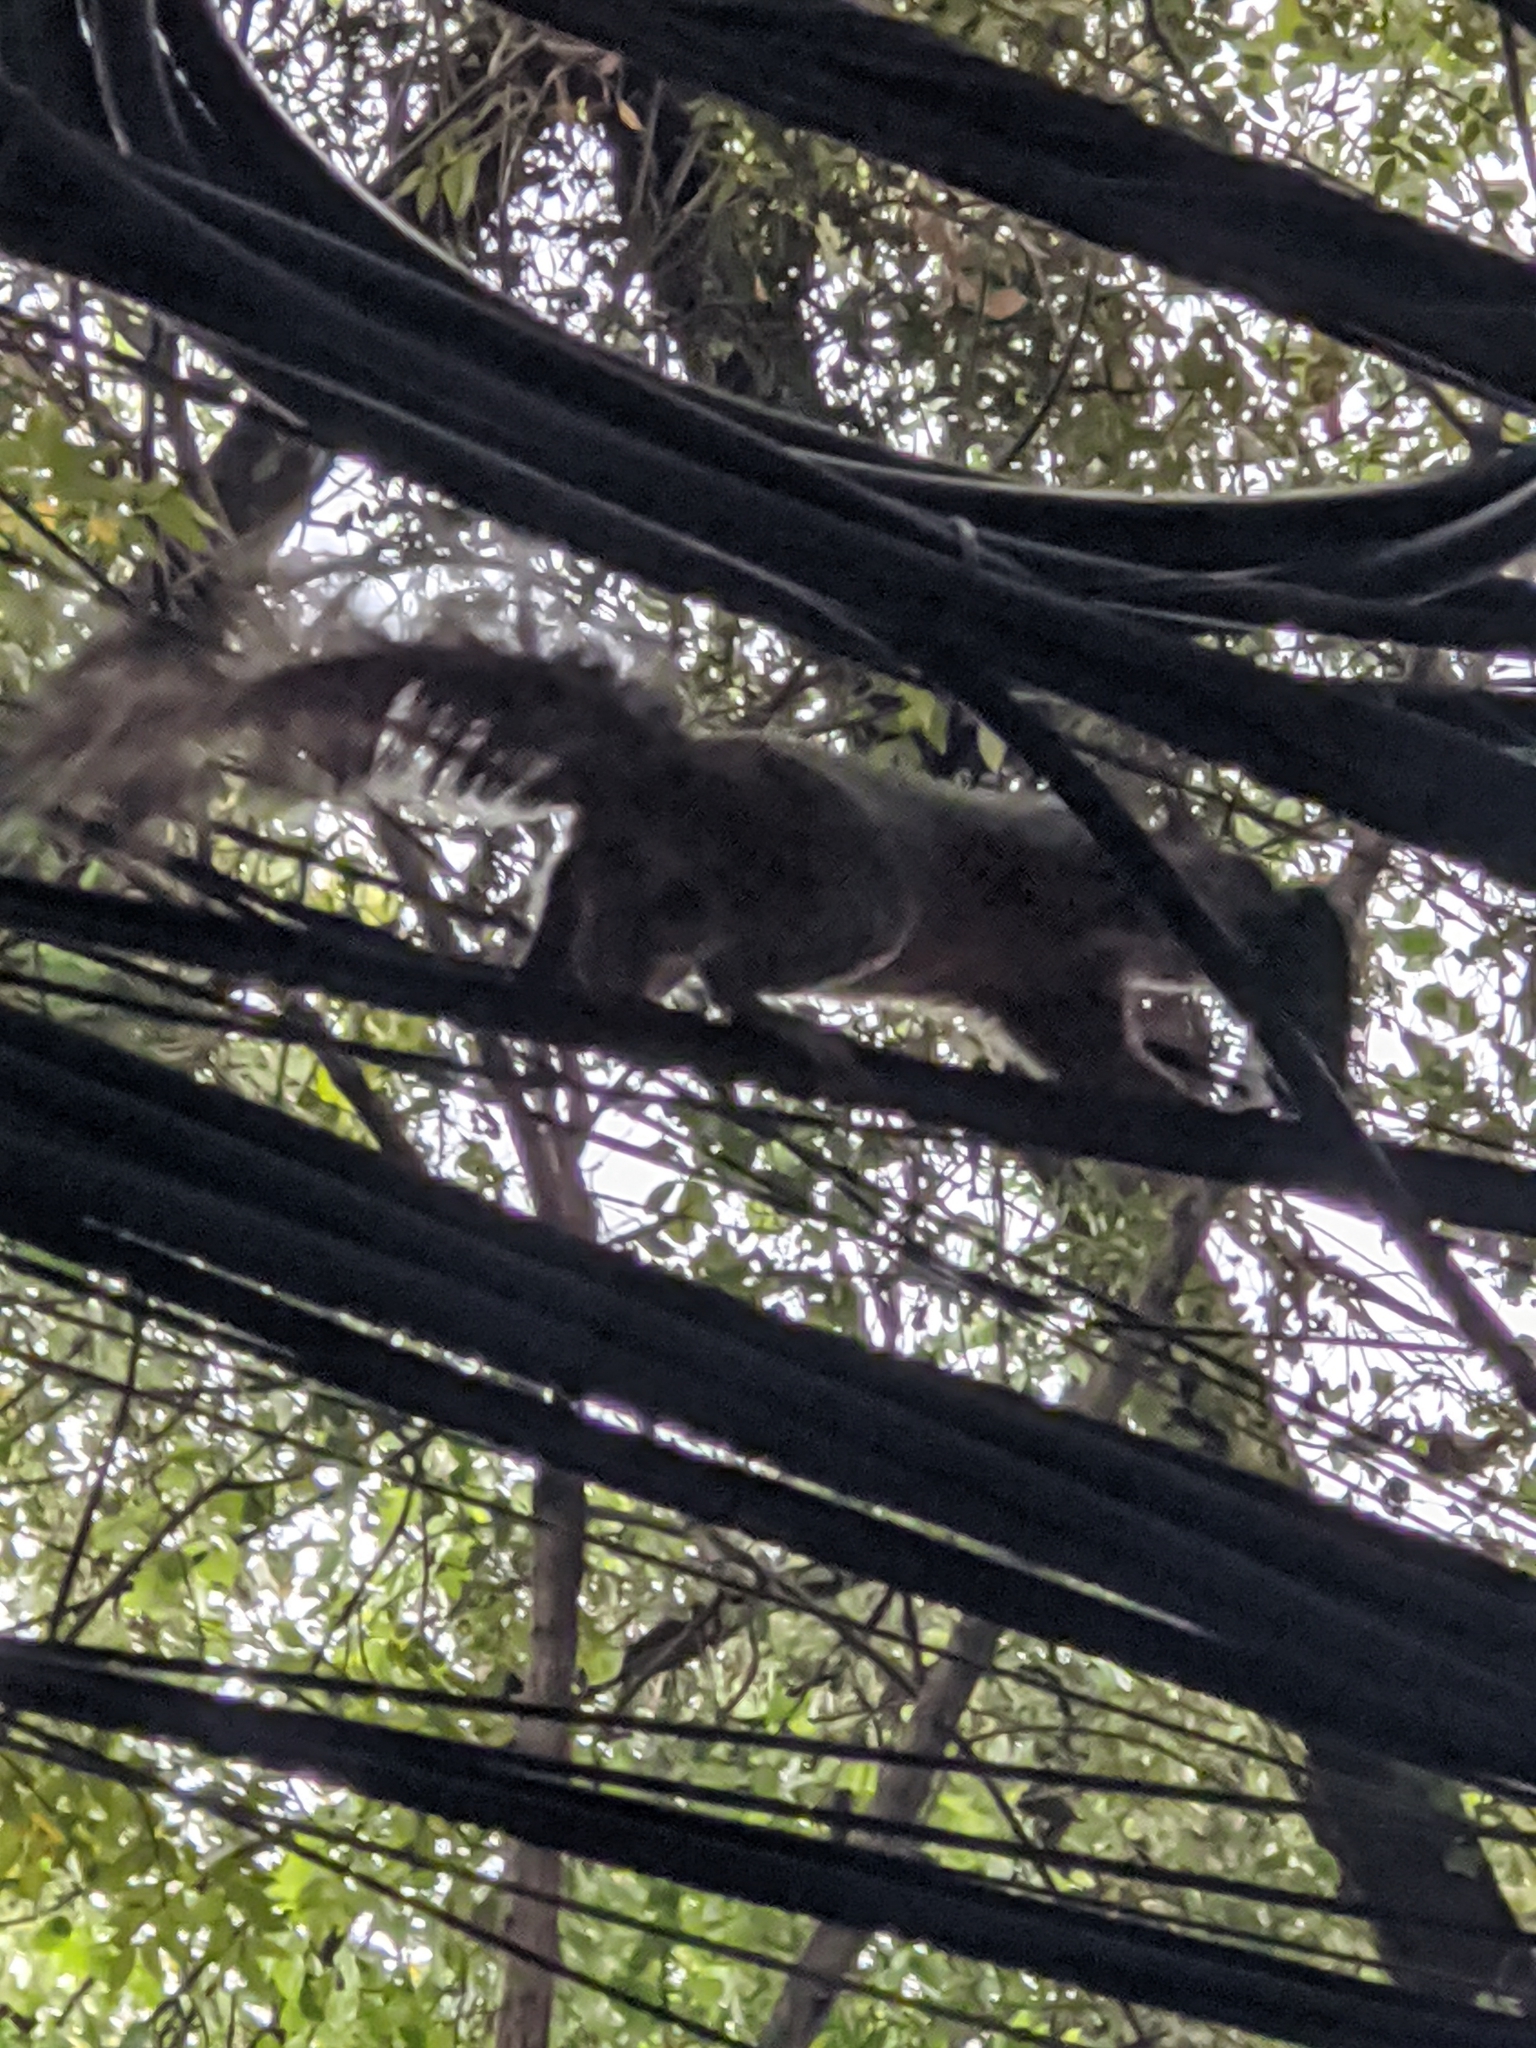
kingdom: Animalia
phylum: Chordata
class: Mammalia
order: Rodentia
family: Sciuridae
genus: Sciurus
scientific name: Sciurus aureogaster
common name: Red-bellied squirrel
